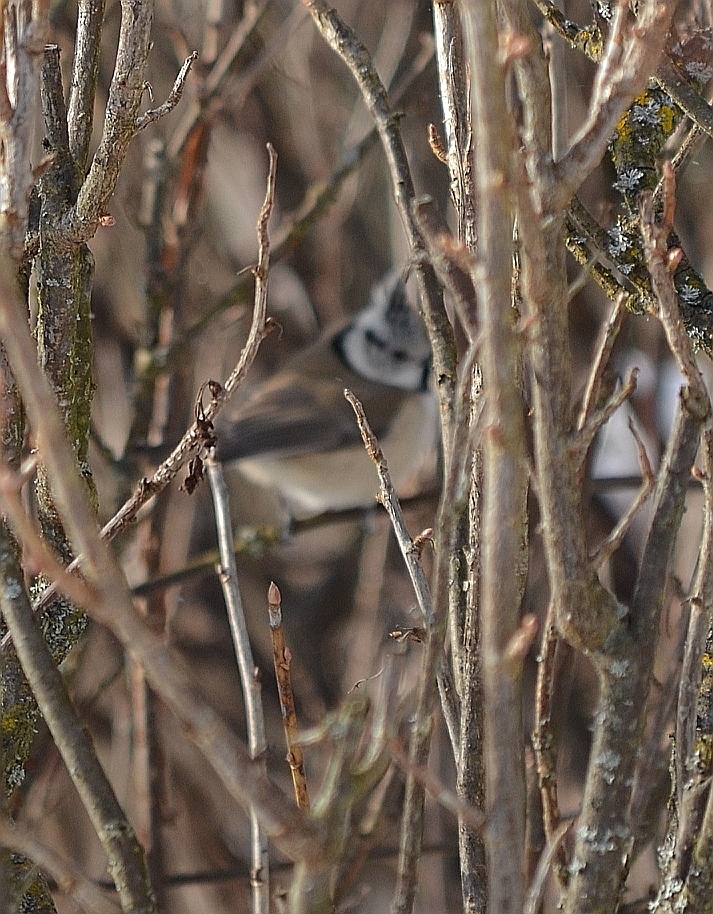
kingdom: Animalia
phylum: Chordata
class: Aves
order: Passeriformes
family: Paridae
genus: Lophophanes
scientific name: Lophophanes cristatus
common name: European crested tit
